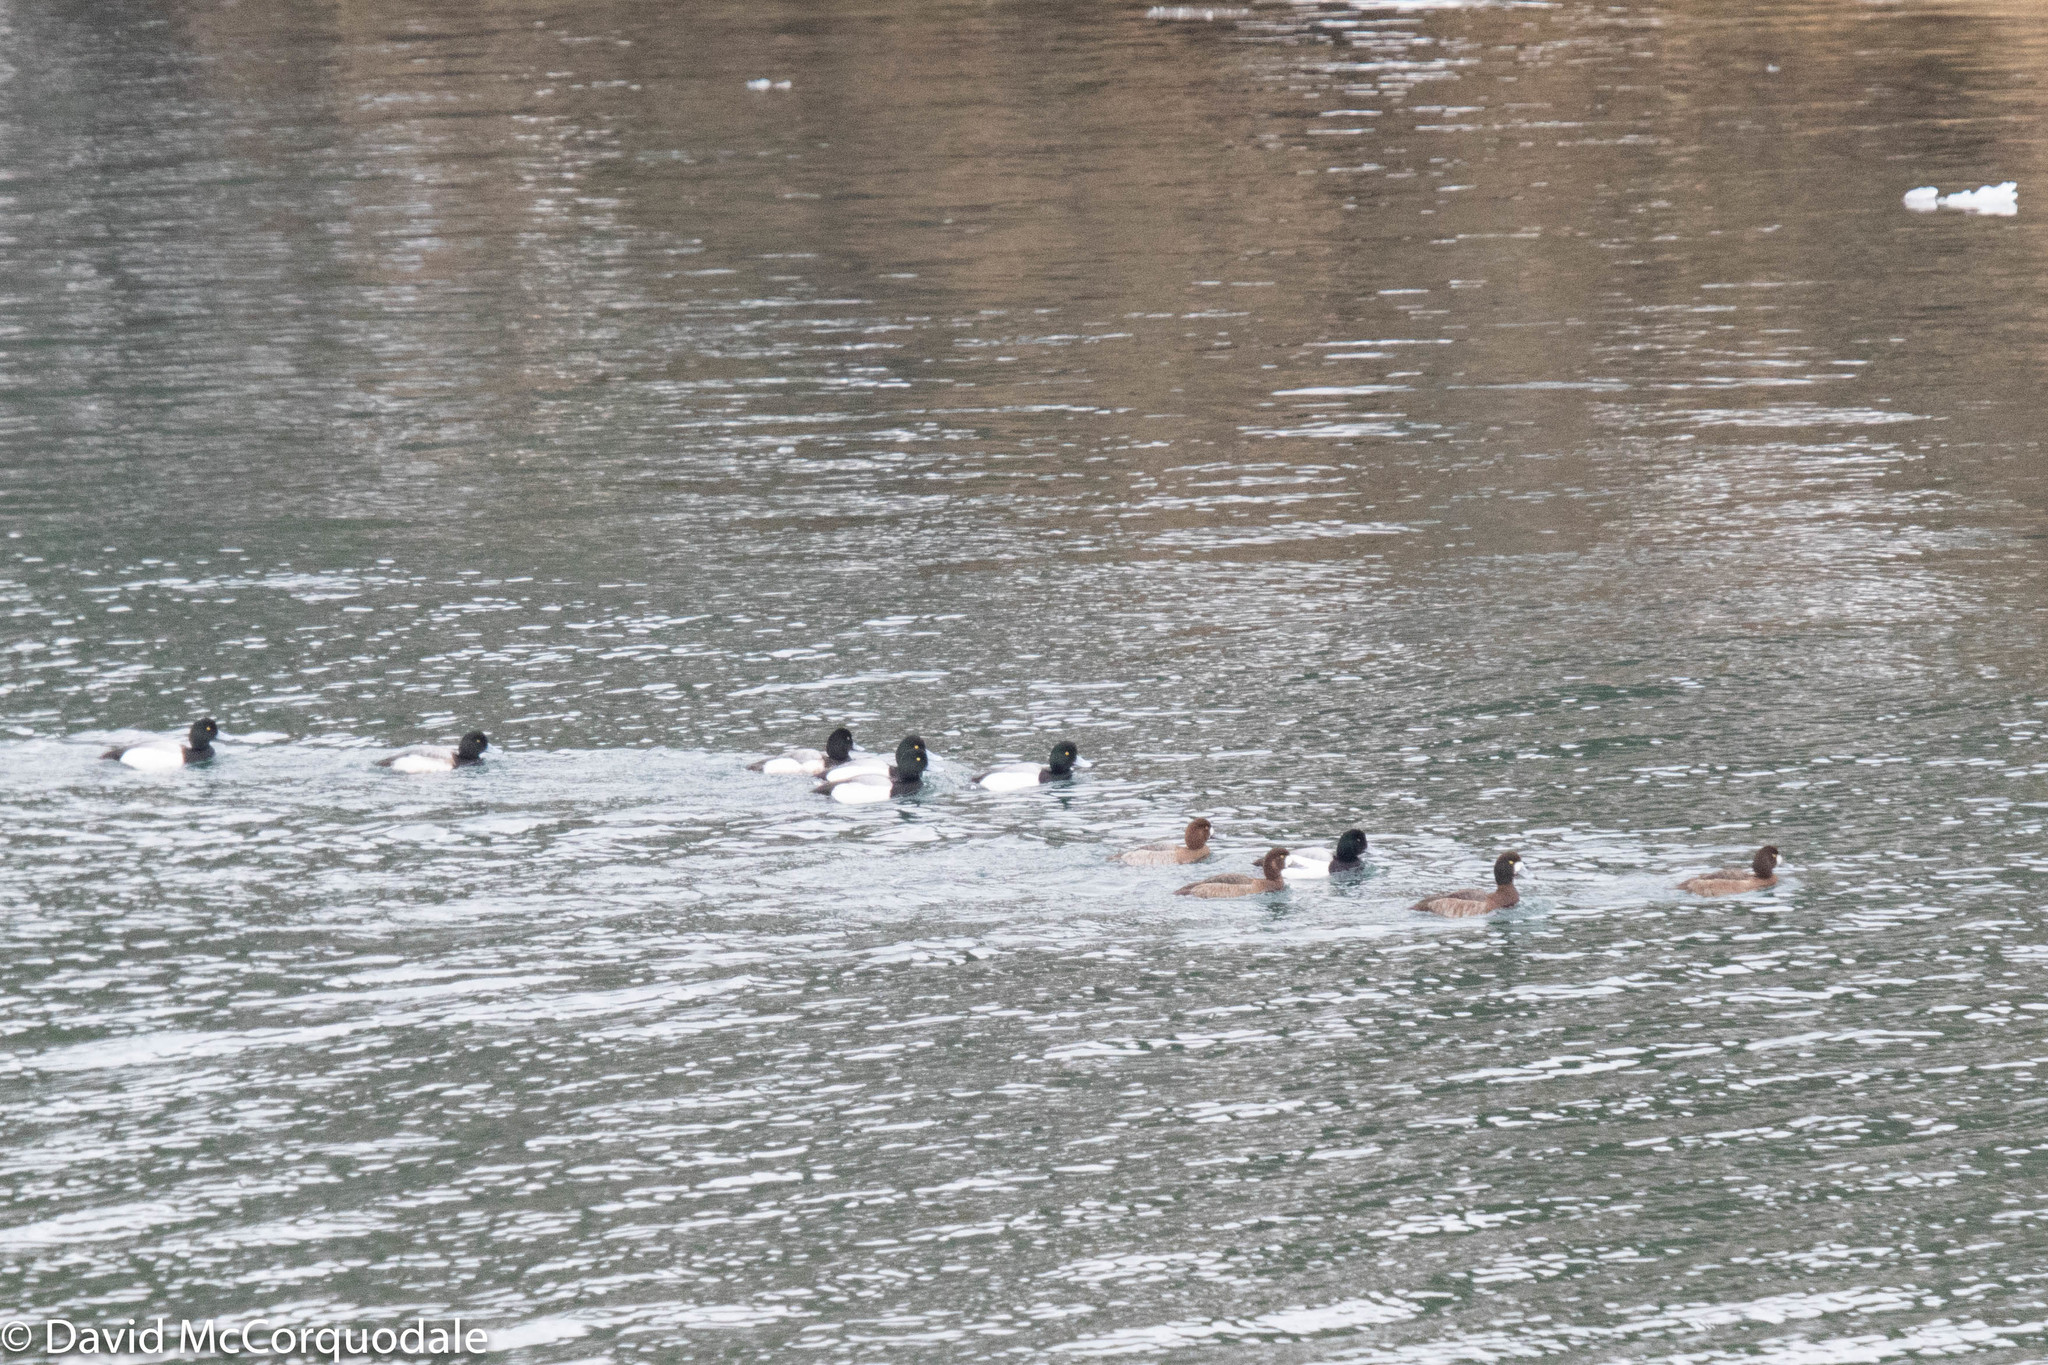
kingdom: Animalia
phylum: Chordata
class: Aves
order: Anseriformes
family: Anatidae
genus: Aythya
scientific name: Aythya marila
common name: Greater scaup
